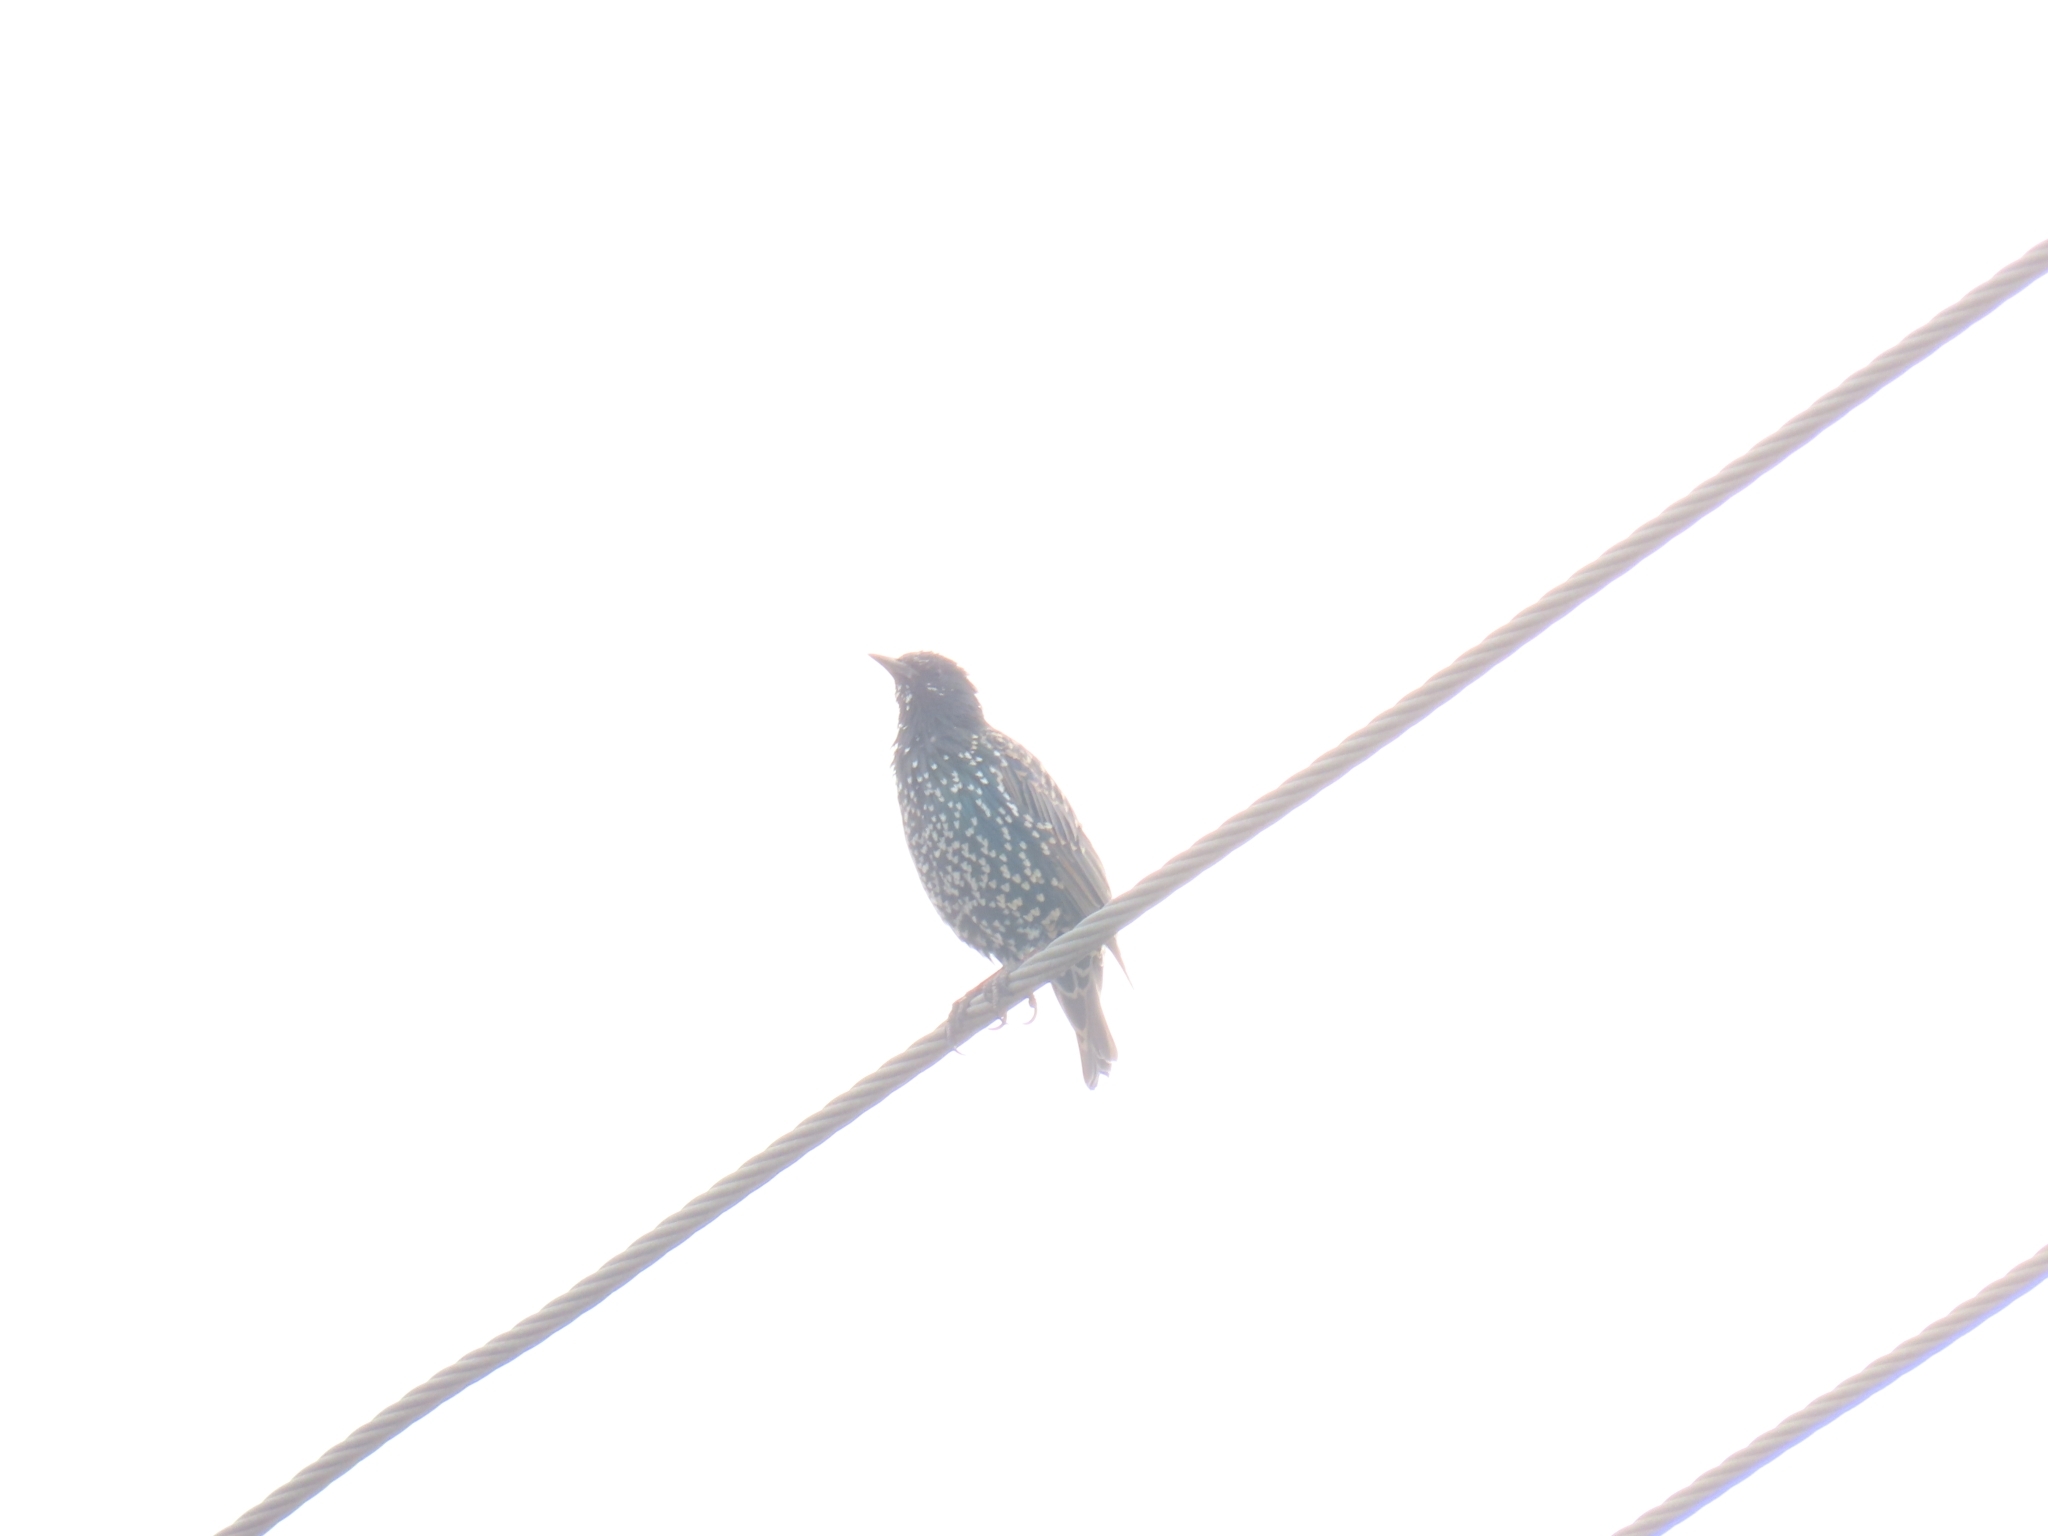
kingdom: Animalia
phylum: Chordata
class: Aves
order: Passeriformes
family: Sturnidae
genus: Sturnus
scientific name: Sturnus vulgaris
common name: Common starling
